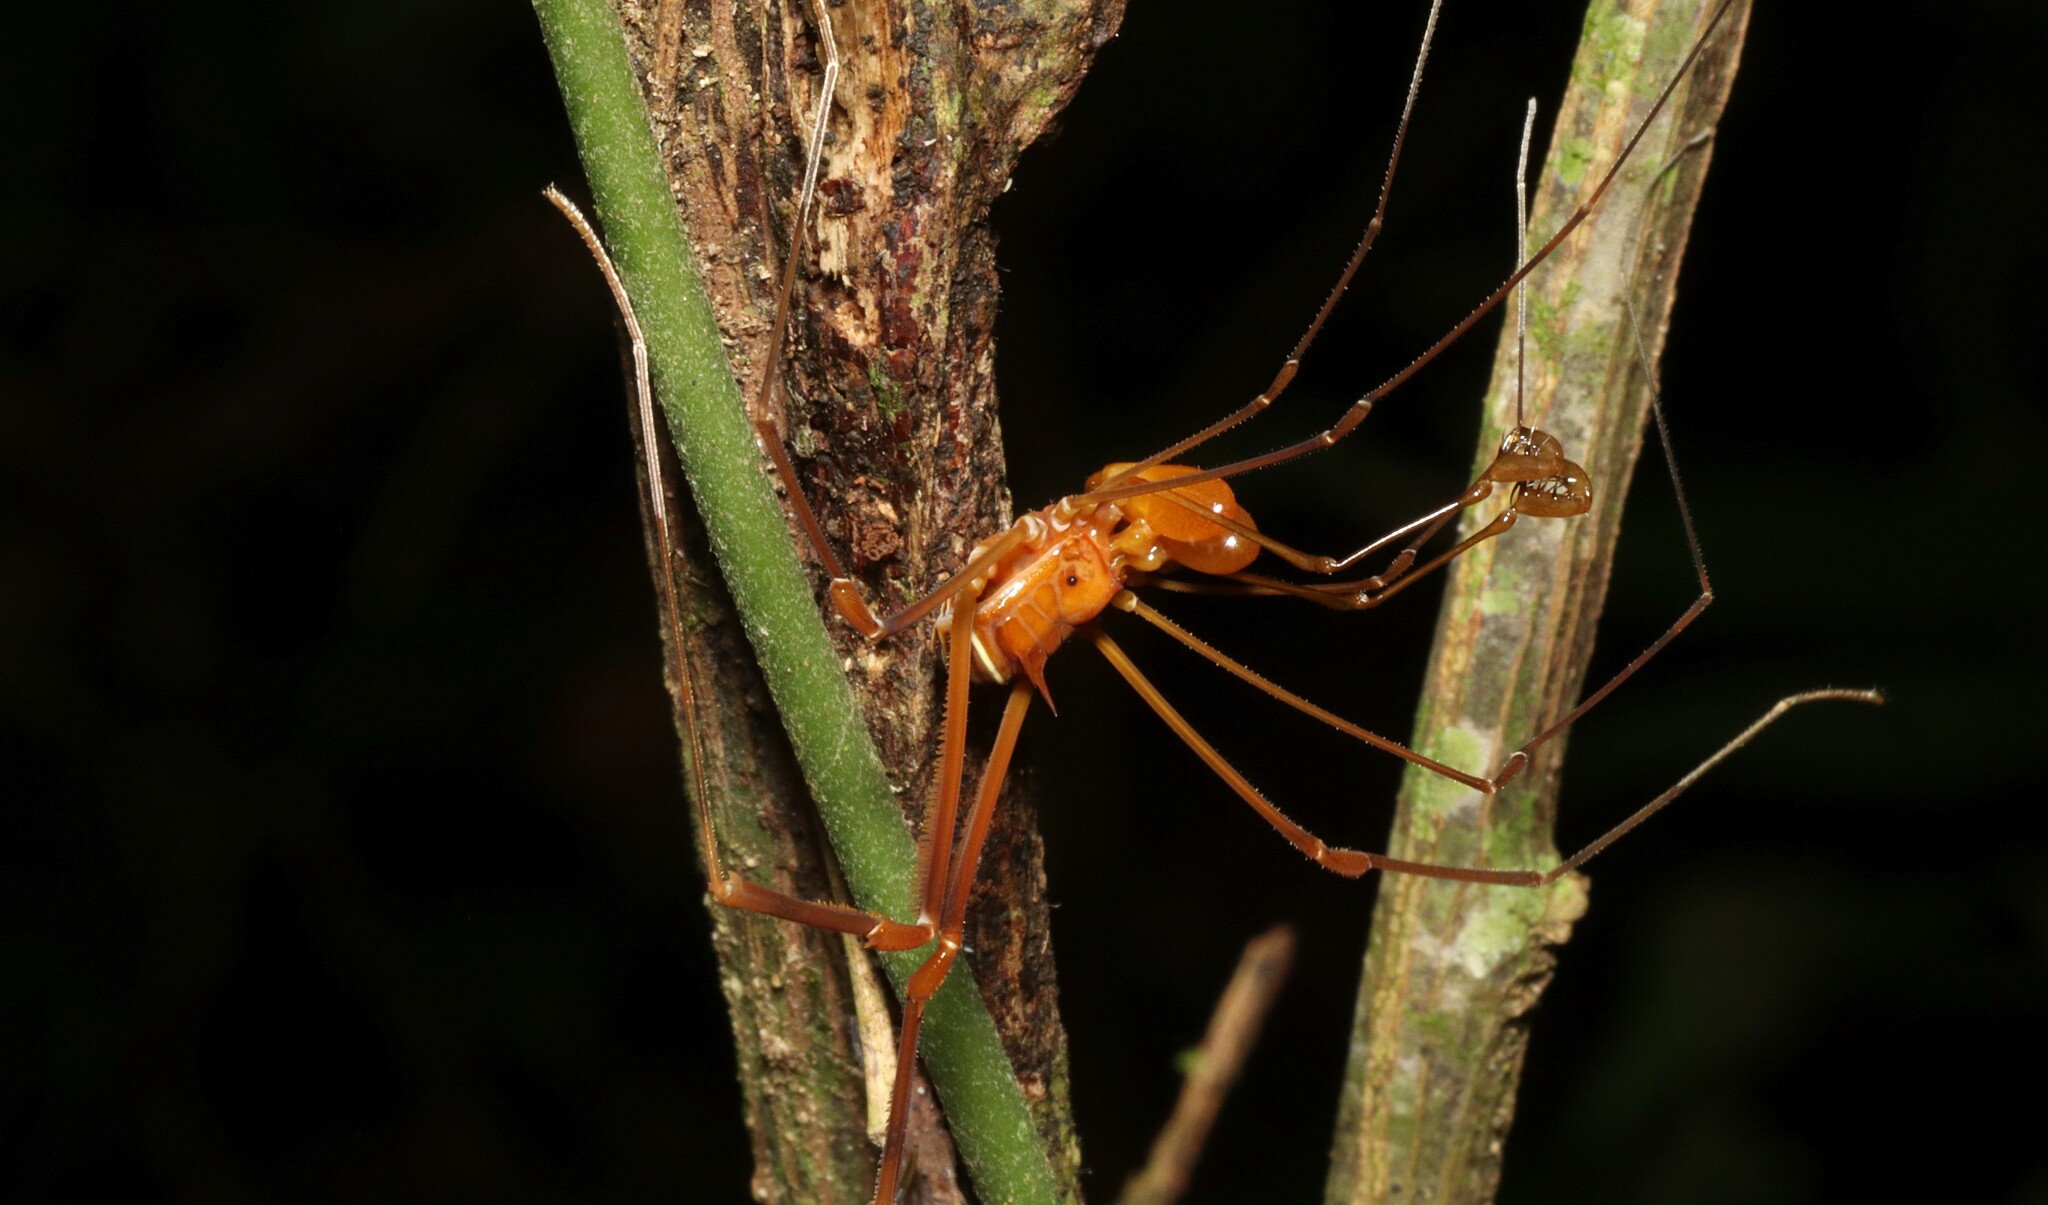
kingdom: Animalia
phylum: Arthropoda
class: Arachnida
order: Opiliones
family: Stygnidae
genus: Obidosus
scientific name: Obidosus boibumba
